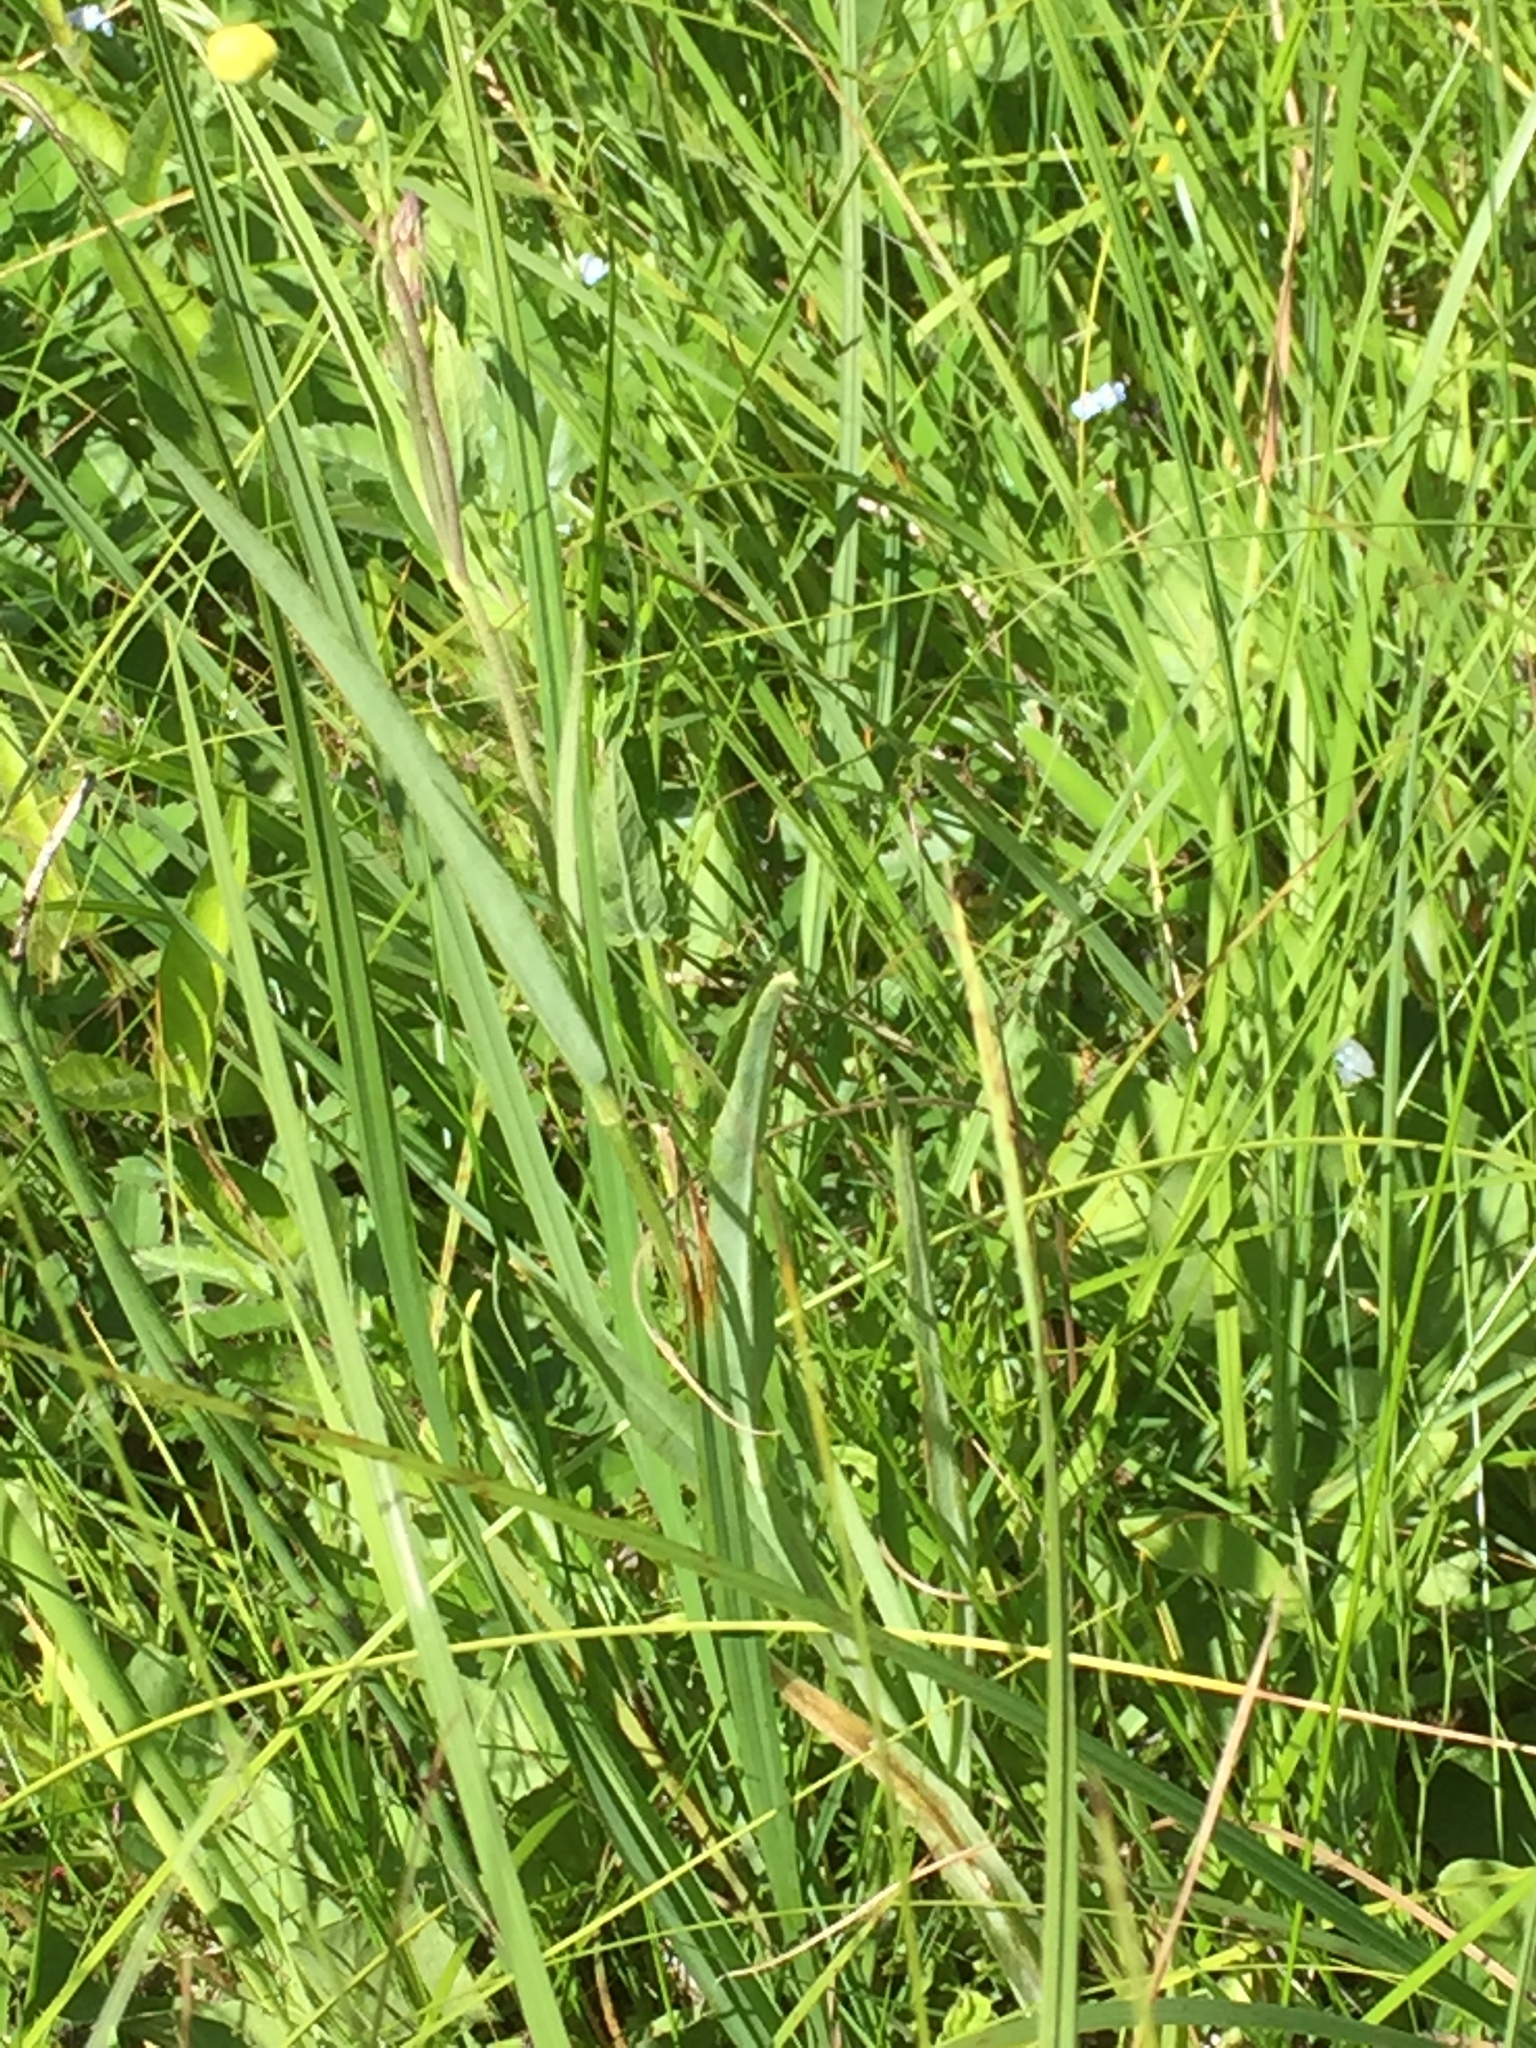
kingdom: Plantae
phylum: Tracheophyta
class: Magnoliopsida
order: Ranunculales
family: Ranunculaceae
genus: Ranunculus
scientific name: Ranunculus lingua
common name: Greater spearwort
